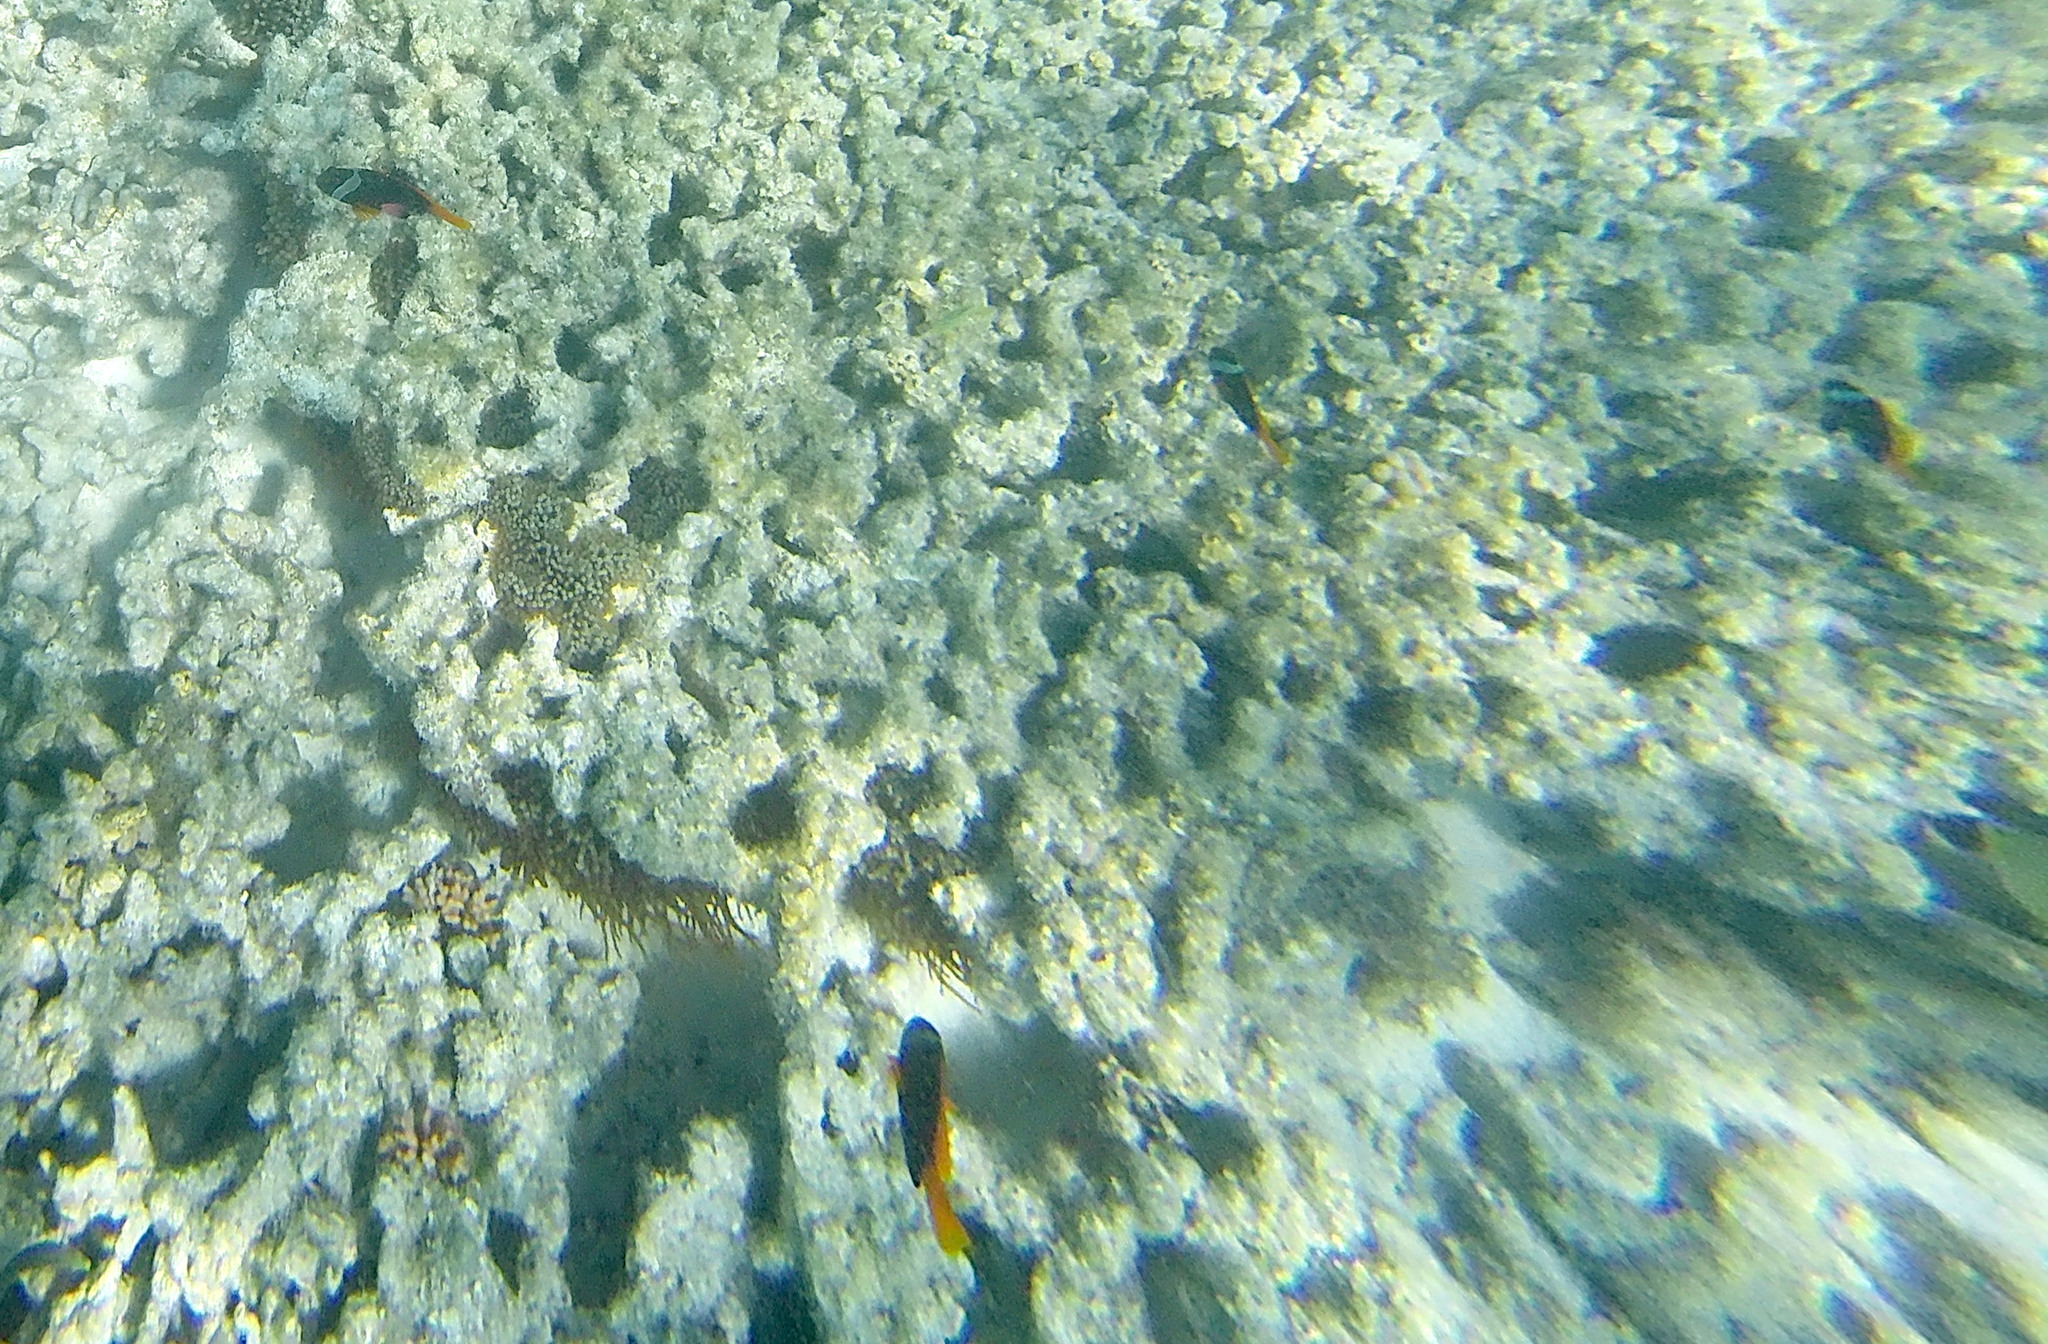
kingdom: Animalia
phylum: Chordata
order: Perciformes
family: Pomacentridae
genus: Amphiprion
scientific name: Amphiprion melanopus
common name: Black anemonefish
